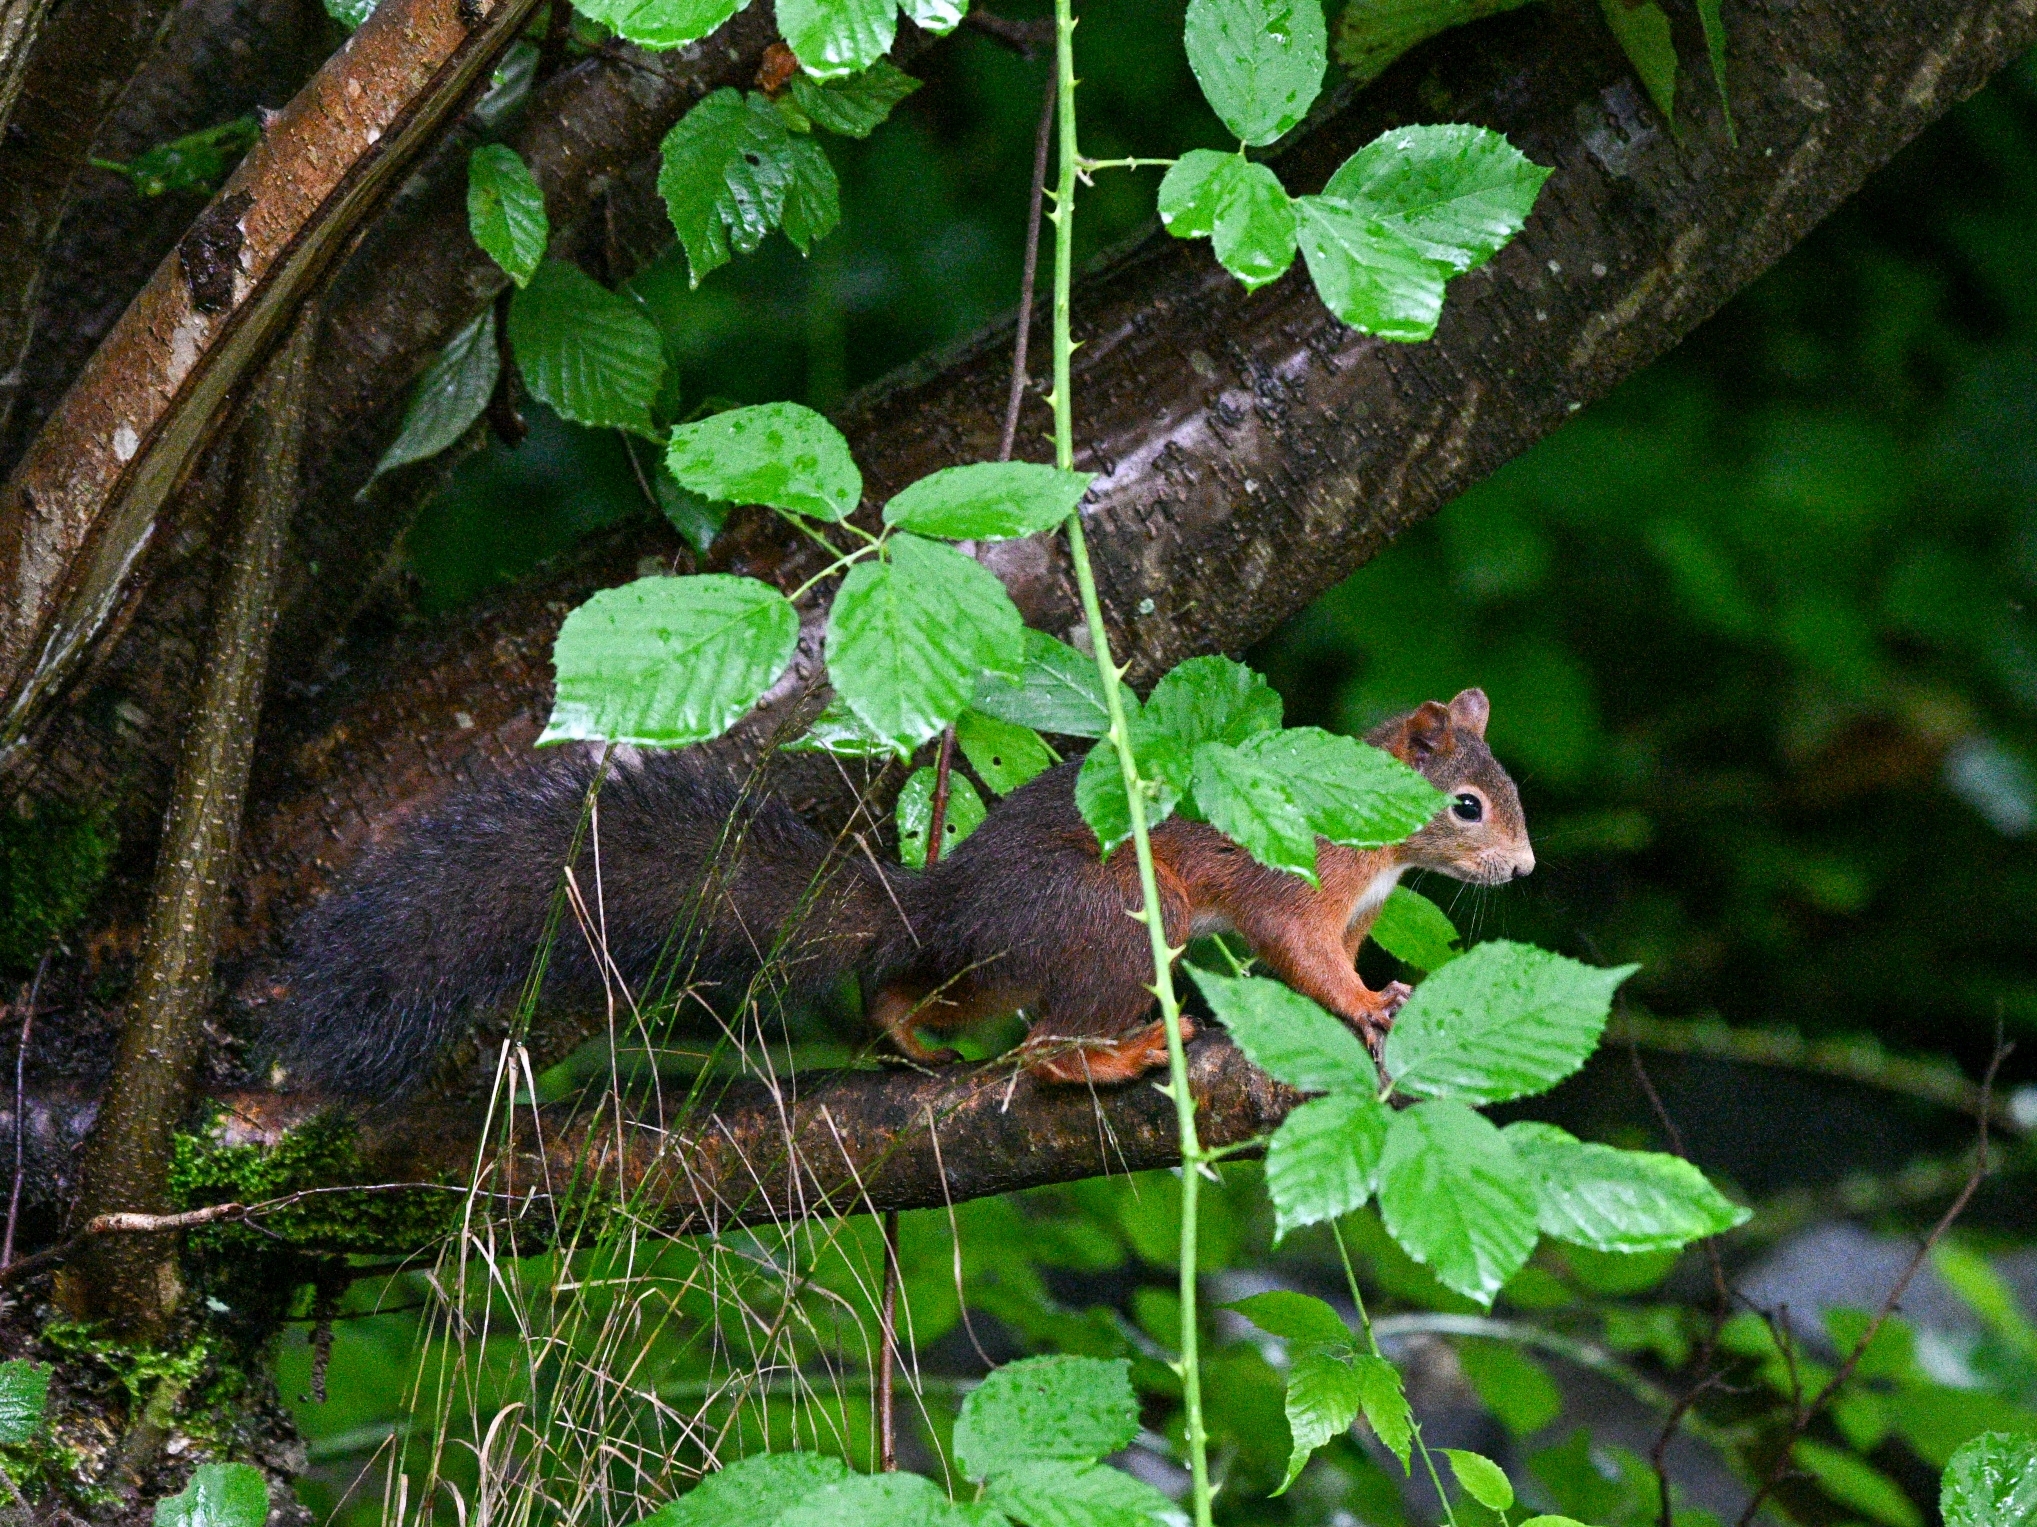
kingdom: Animalia
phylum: Chordata
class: Mammalia
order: Rodentia
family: Sciuridae
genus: Sciurus
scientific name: Sciurus vulgaris
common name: Eurasian red squirrel
